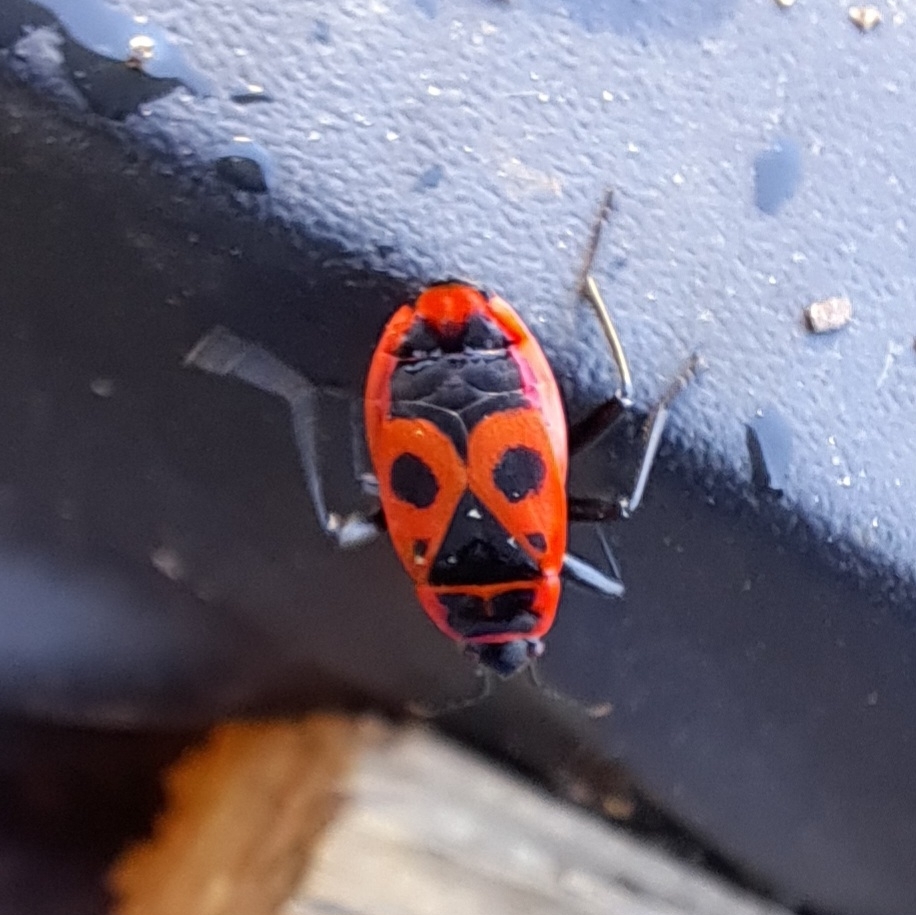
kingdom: Animalia
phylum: Arthropoda
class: Insecta
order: Hemiptera
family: Pyrrhocoridae
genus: Pyrrhocoris
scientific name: Pyrrhocoris apterus
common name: Firebug
